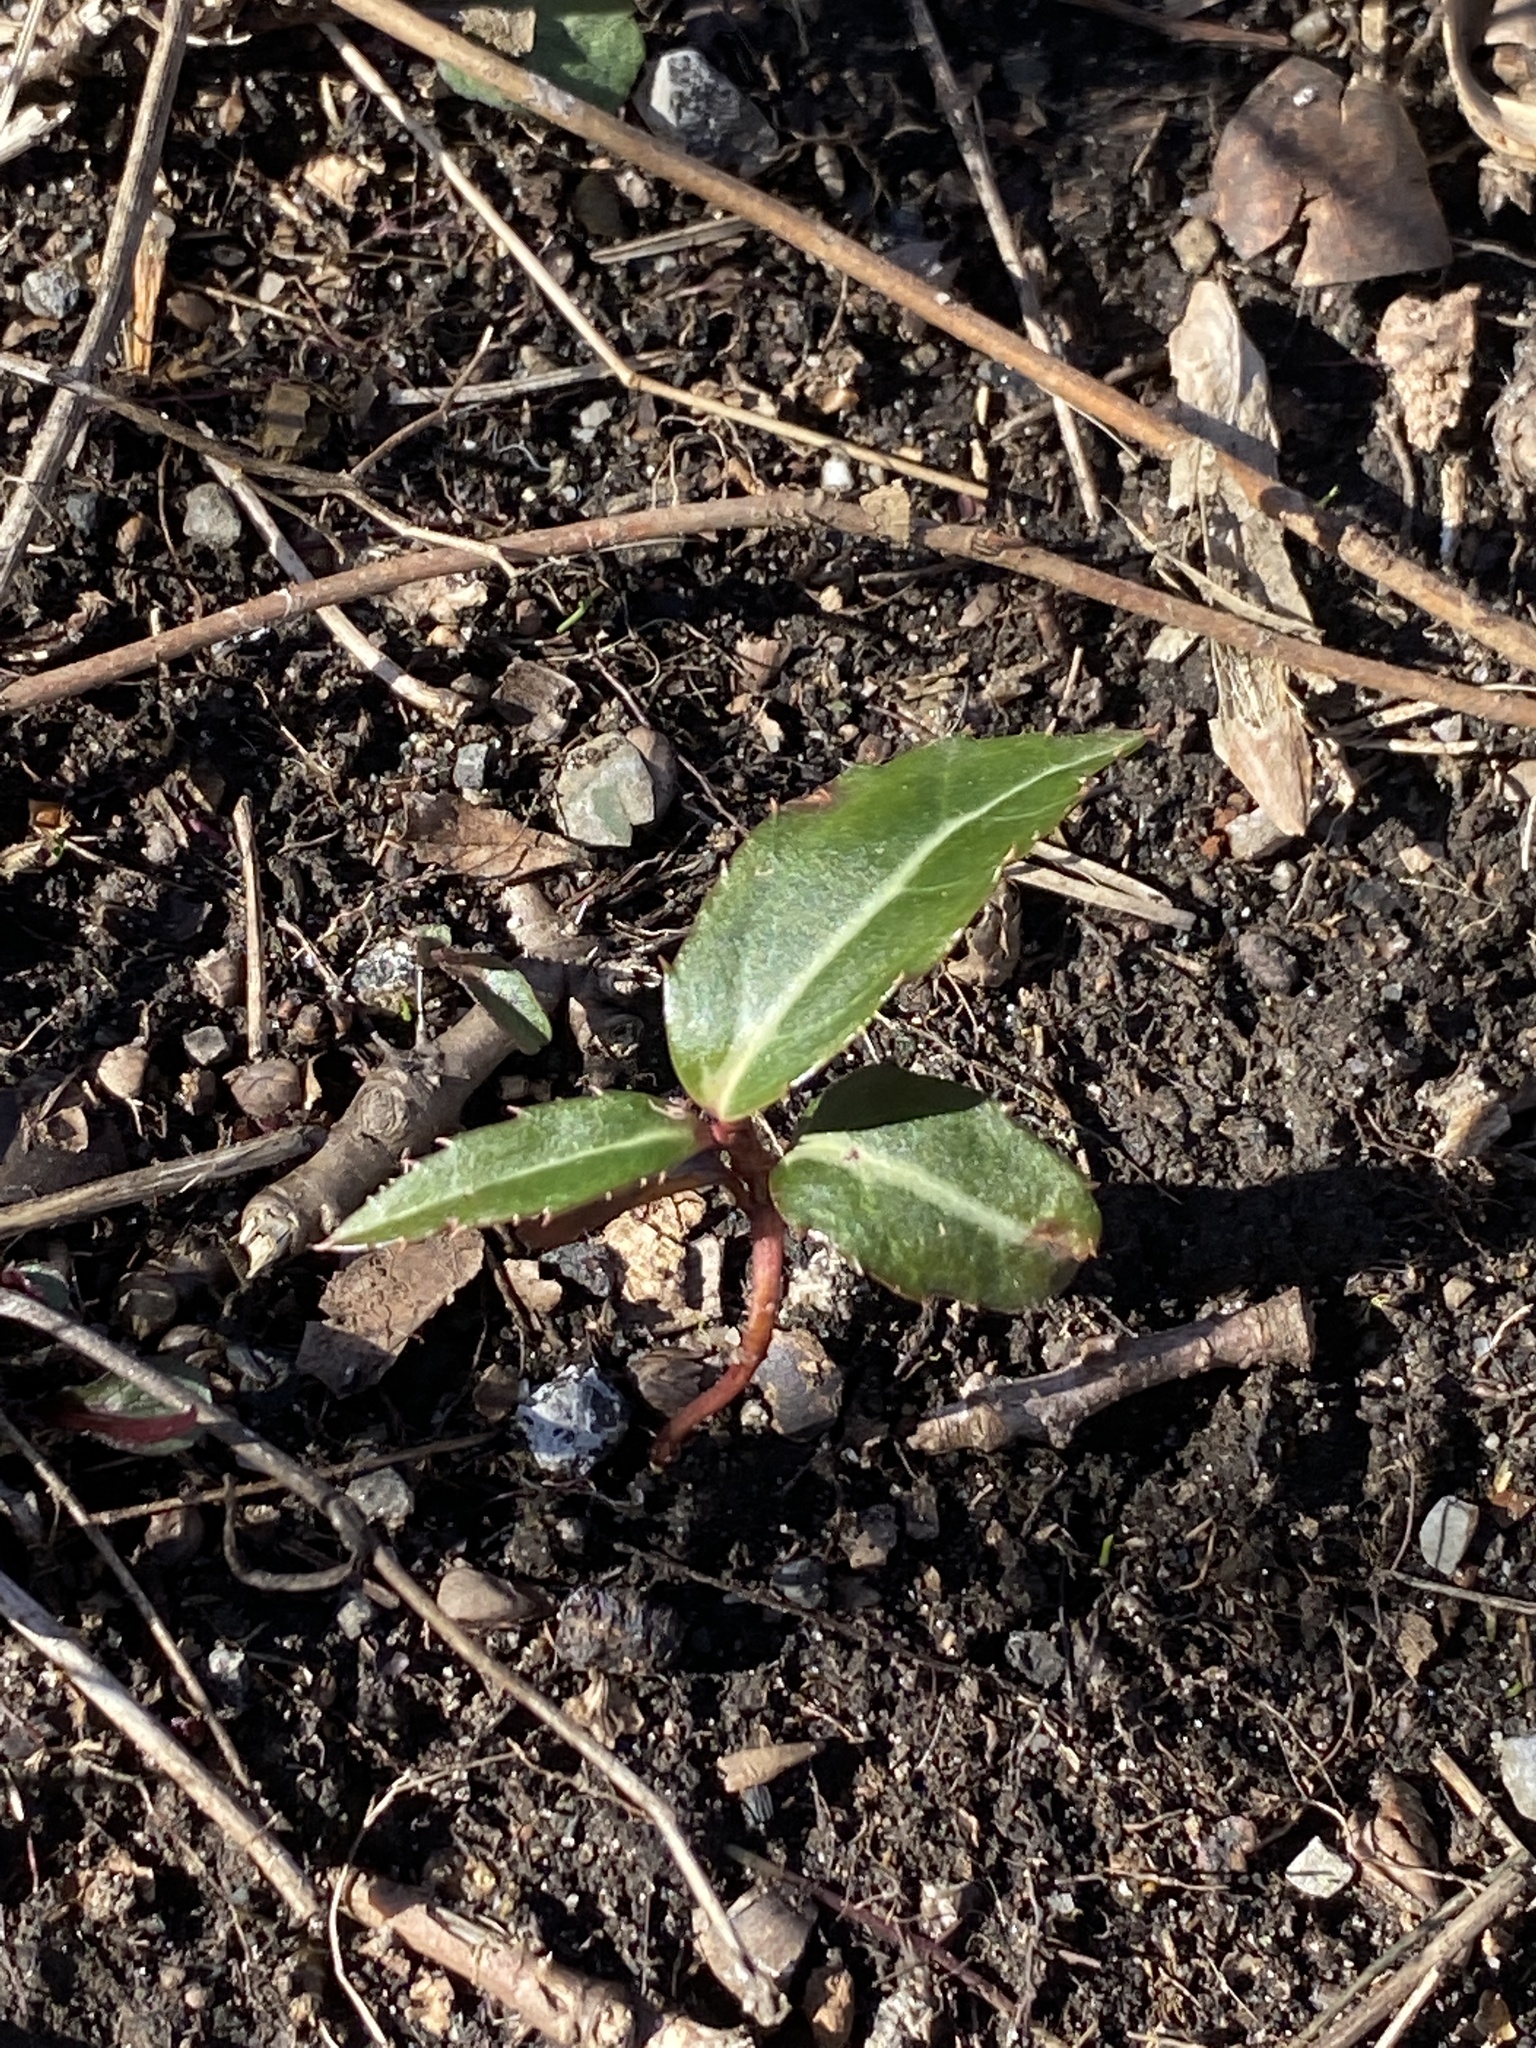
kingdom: Plantae
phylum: Tracheophyta
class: Magnoliopsida
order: Ericales
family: Ericaceae
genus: Chimaphila
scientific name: Chimaphila maculata
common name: Spotted pipsissewa
